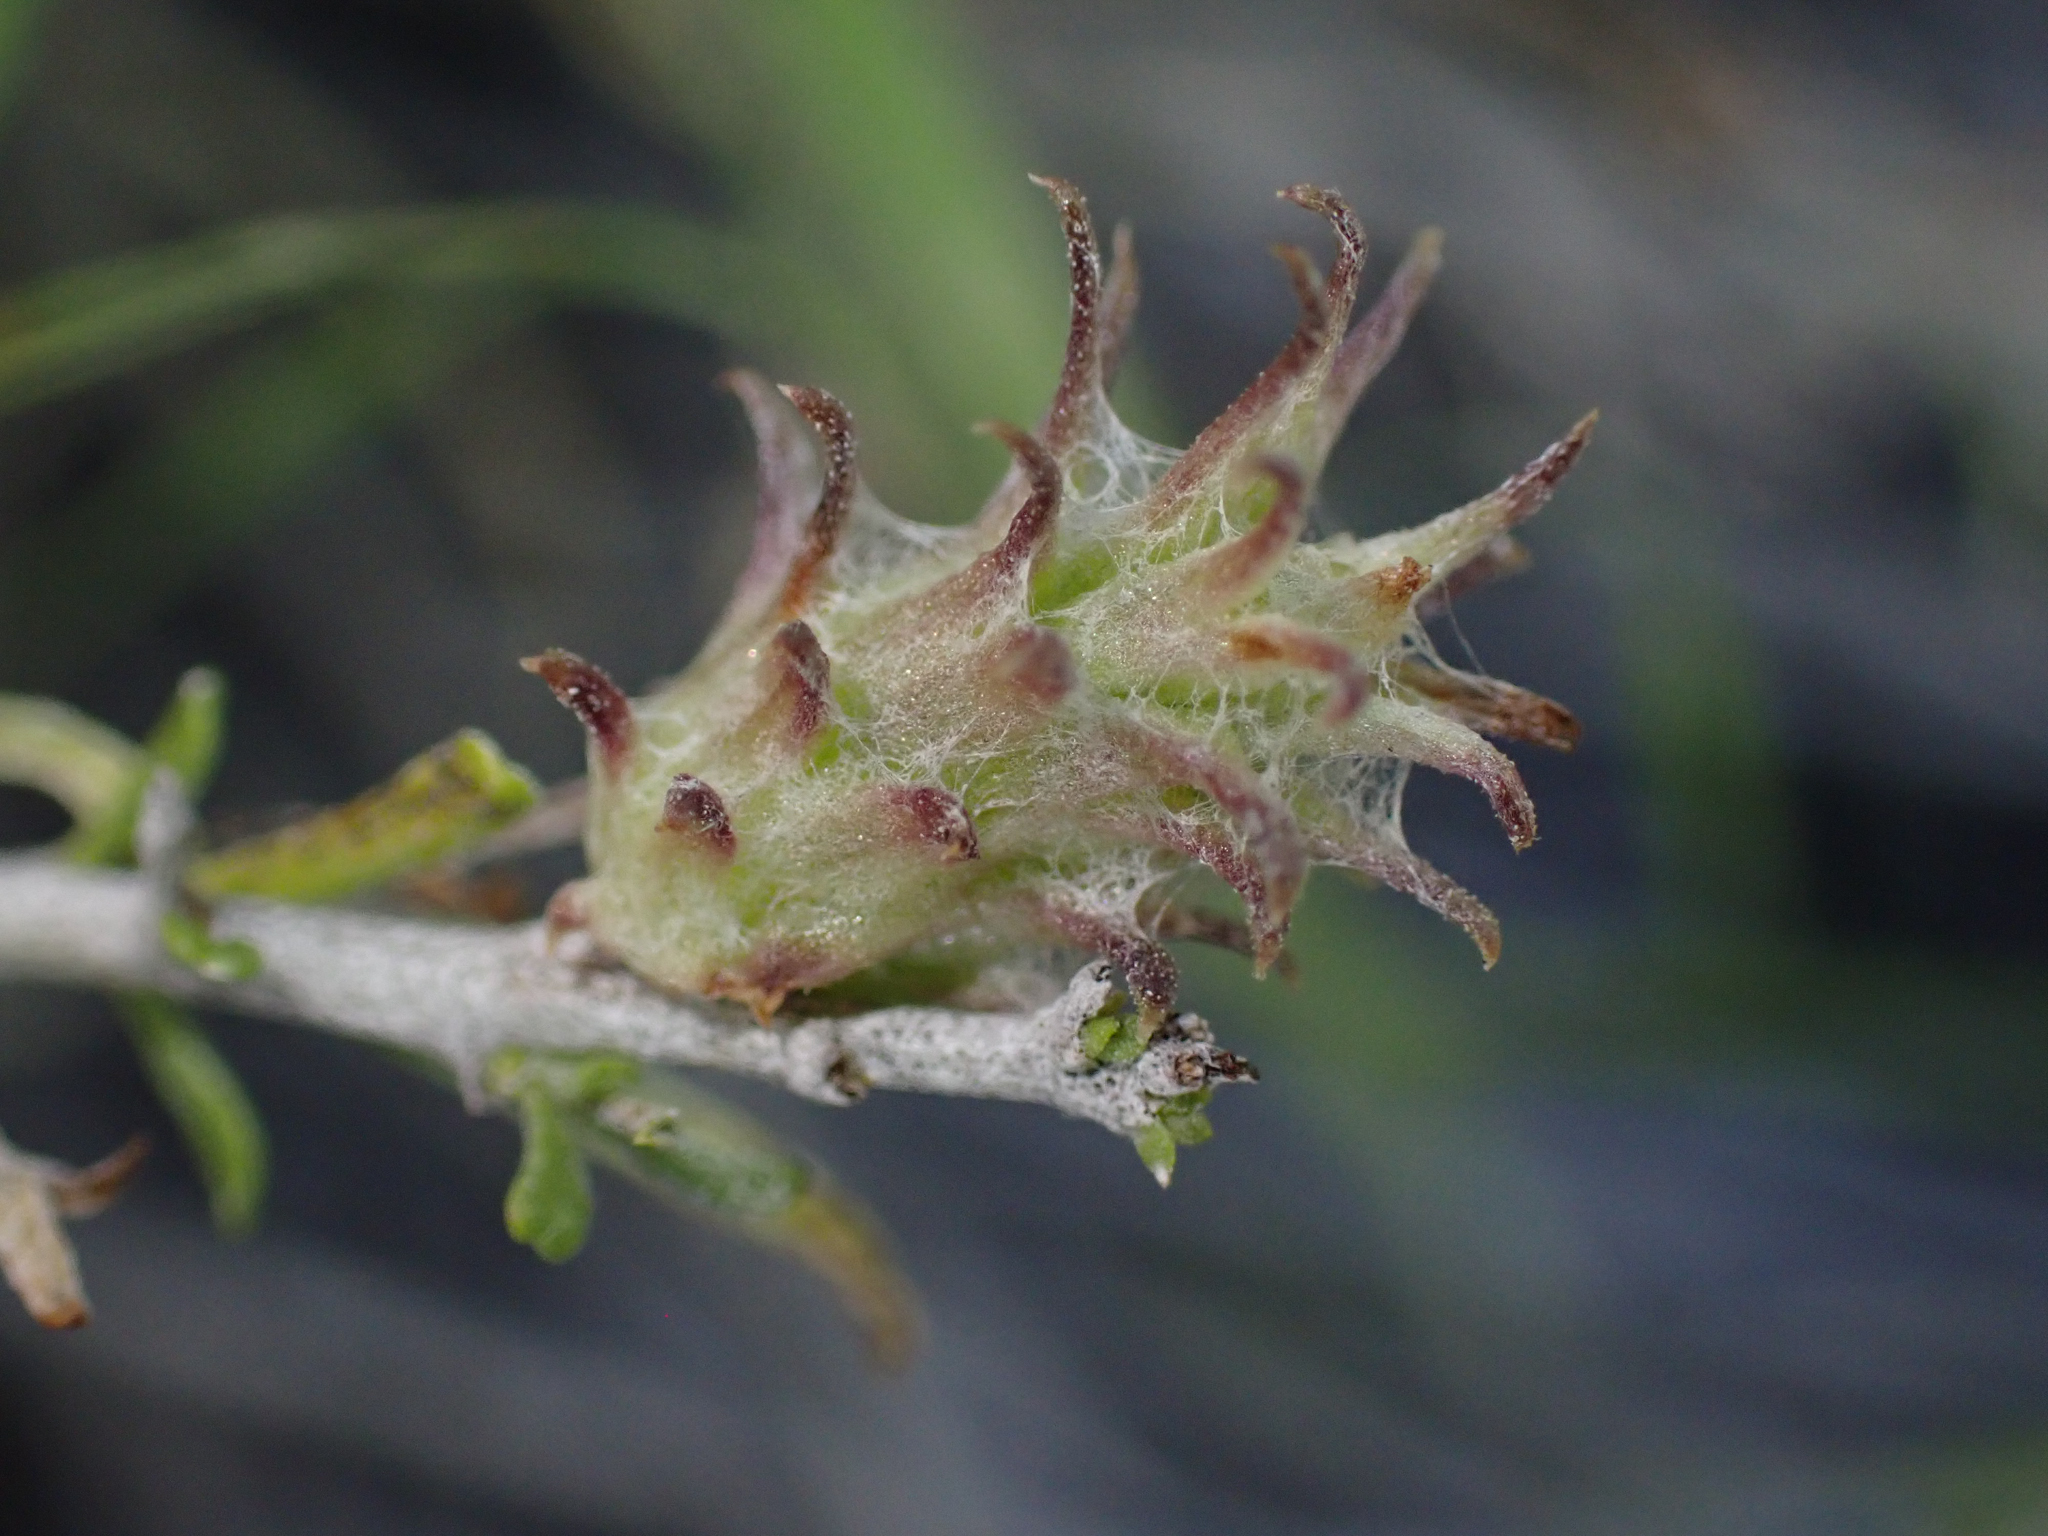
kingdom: Animalia
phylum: Arthropoda
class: Insecta
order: Diptera
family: Cecidomyiidae
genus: Rhopalomyia
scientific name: Rhopalomyia utahensis
